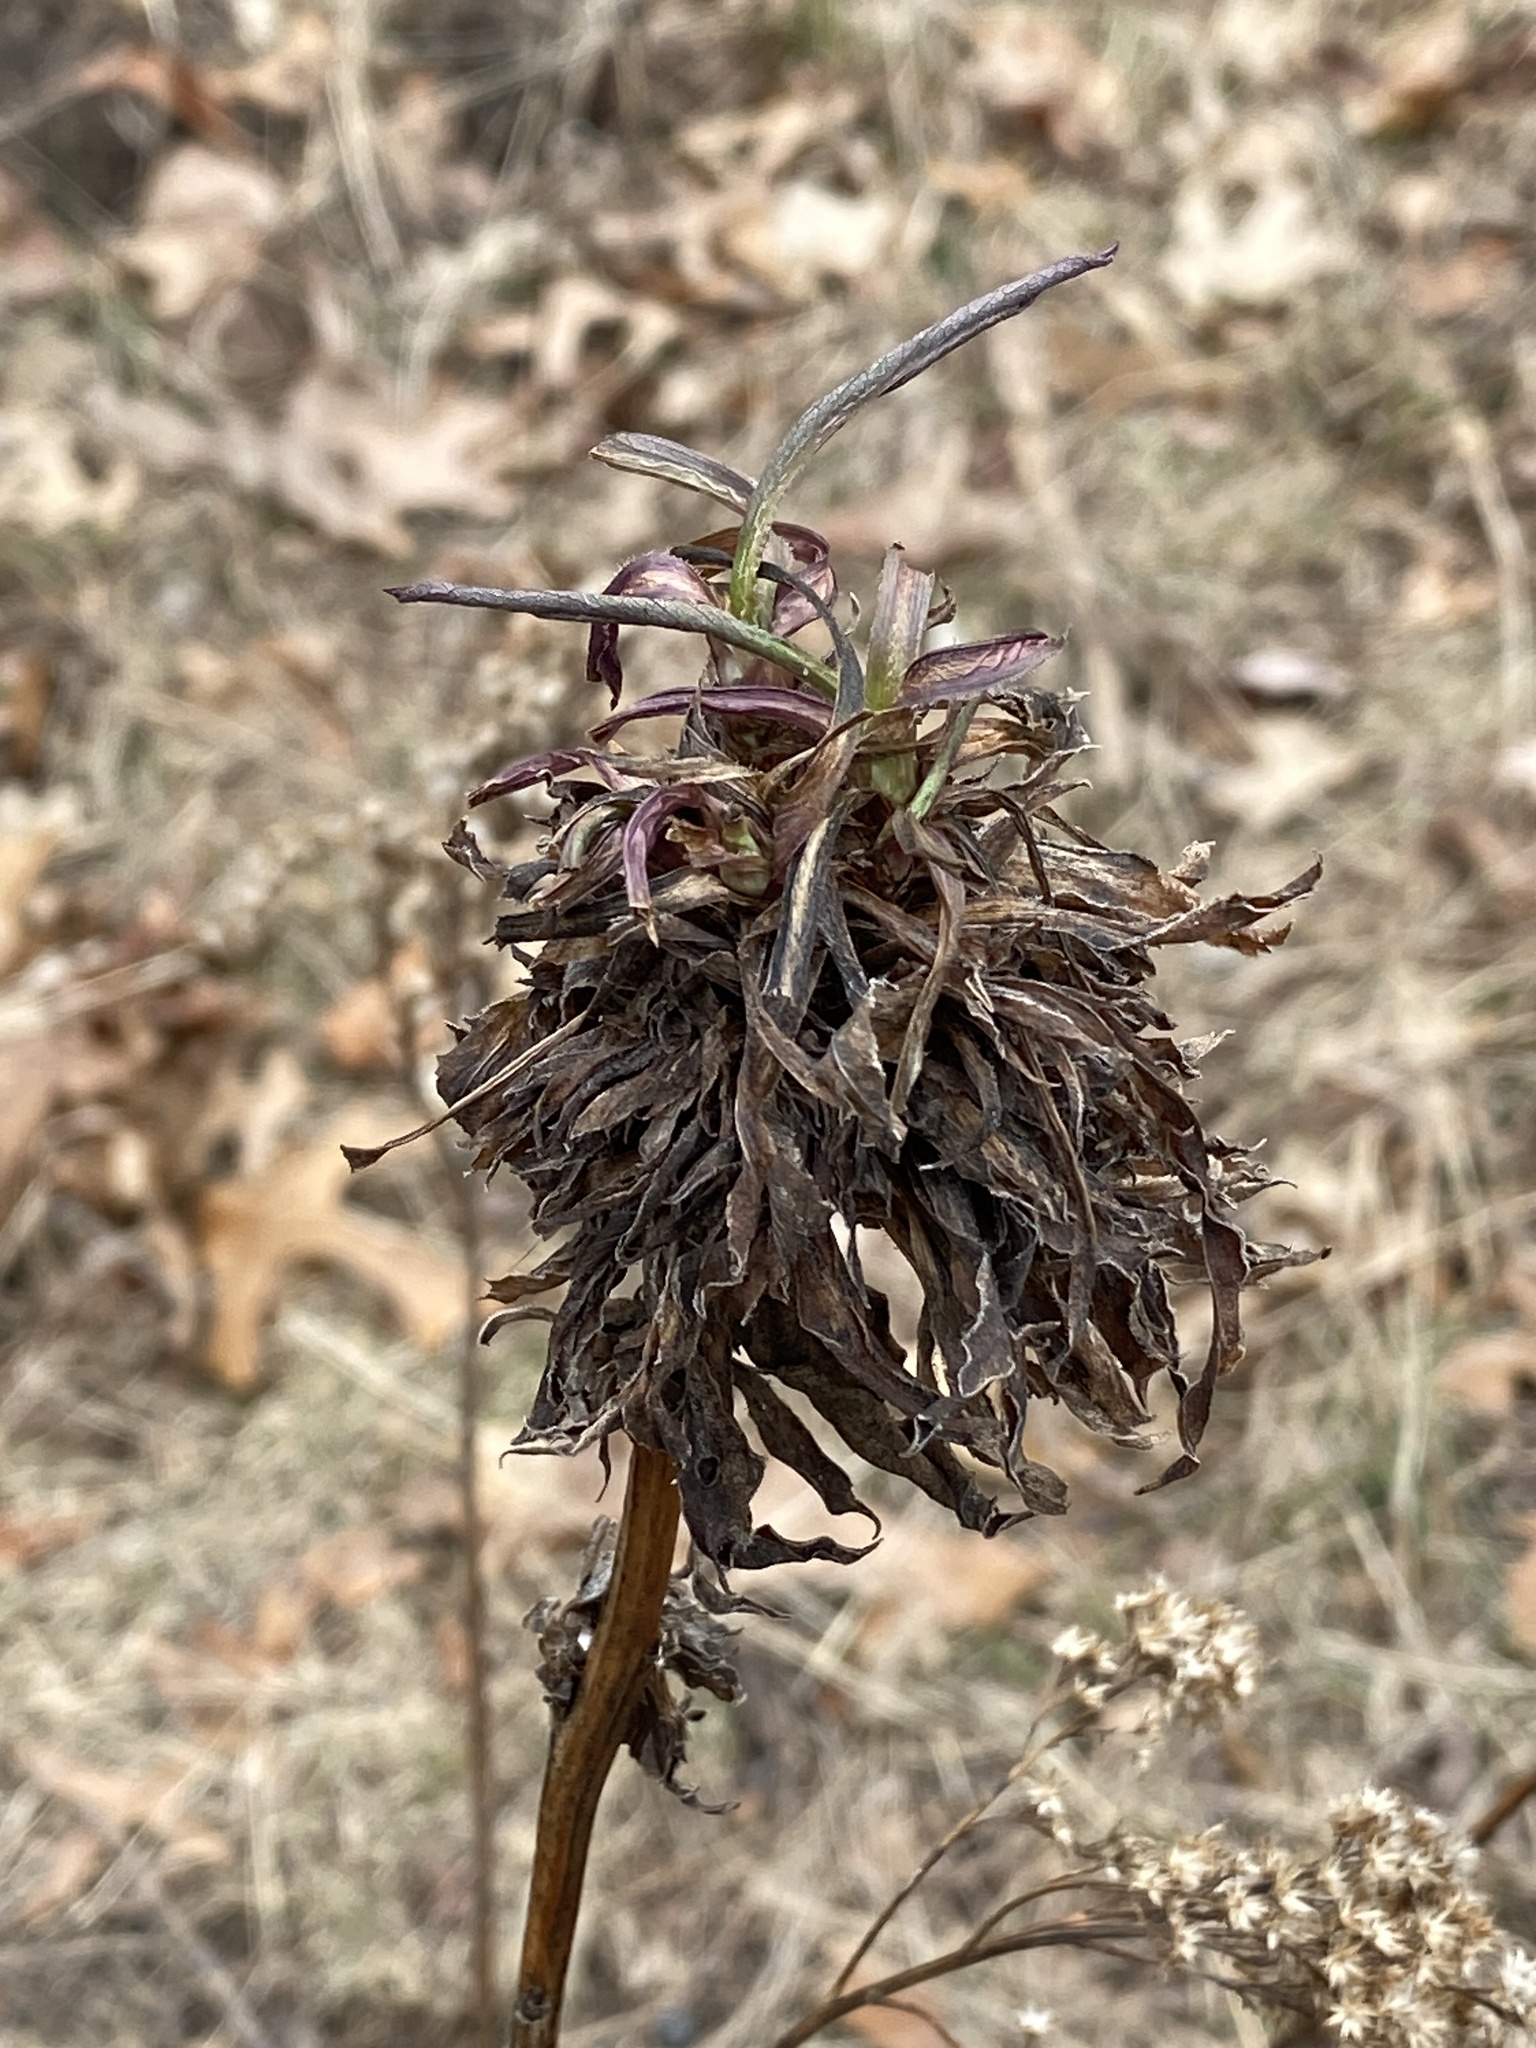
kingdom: Animalia
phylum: Arthropoda
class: Insecta
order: Diptera
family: Cecidomyiidae
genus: Asphondylia
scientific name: Asphondylia monacha
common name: Nun midge
